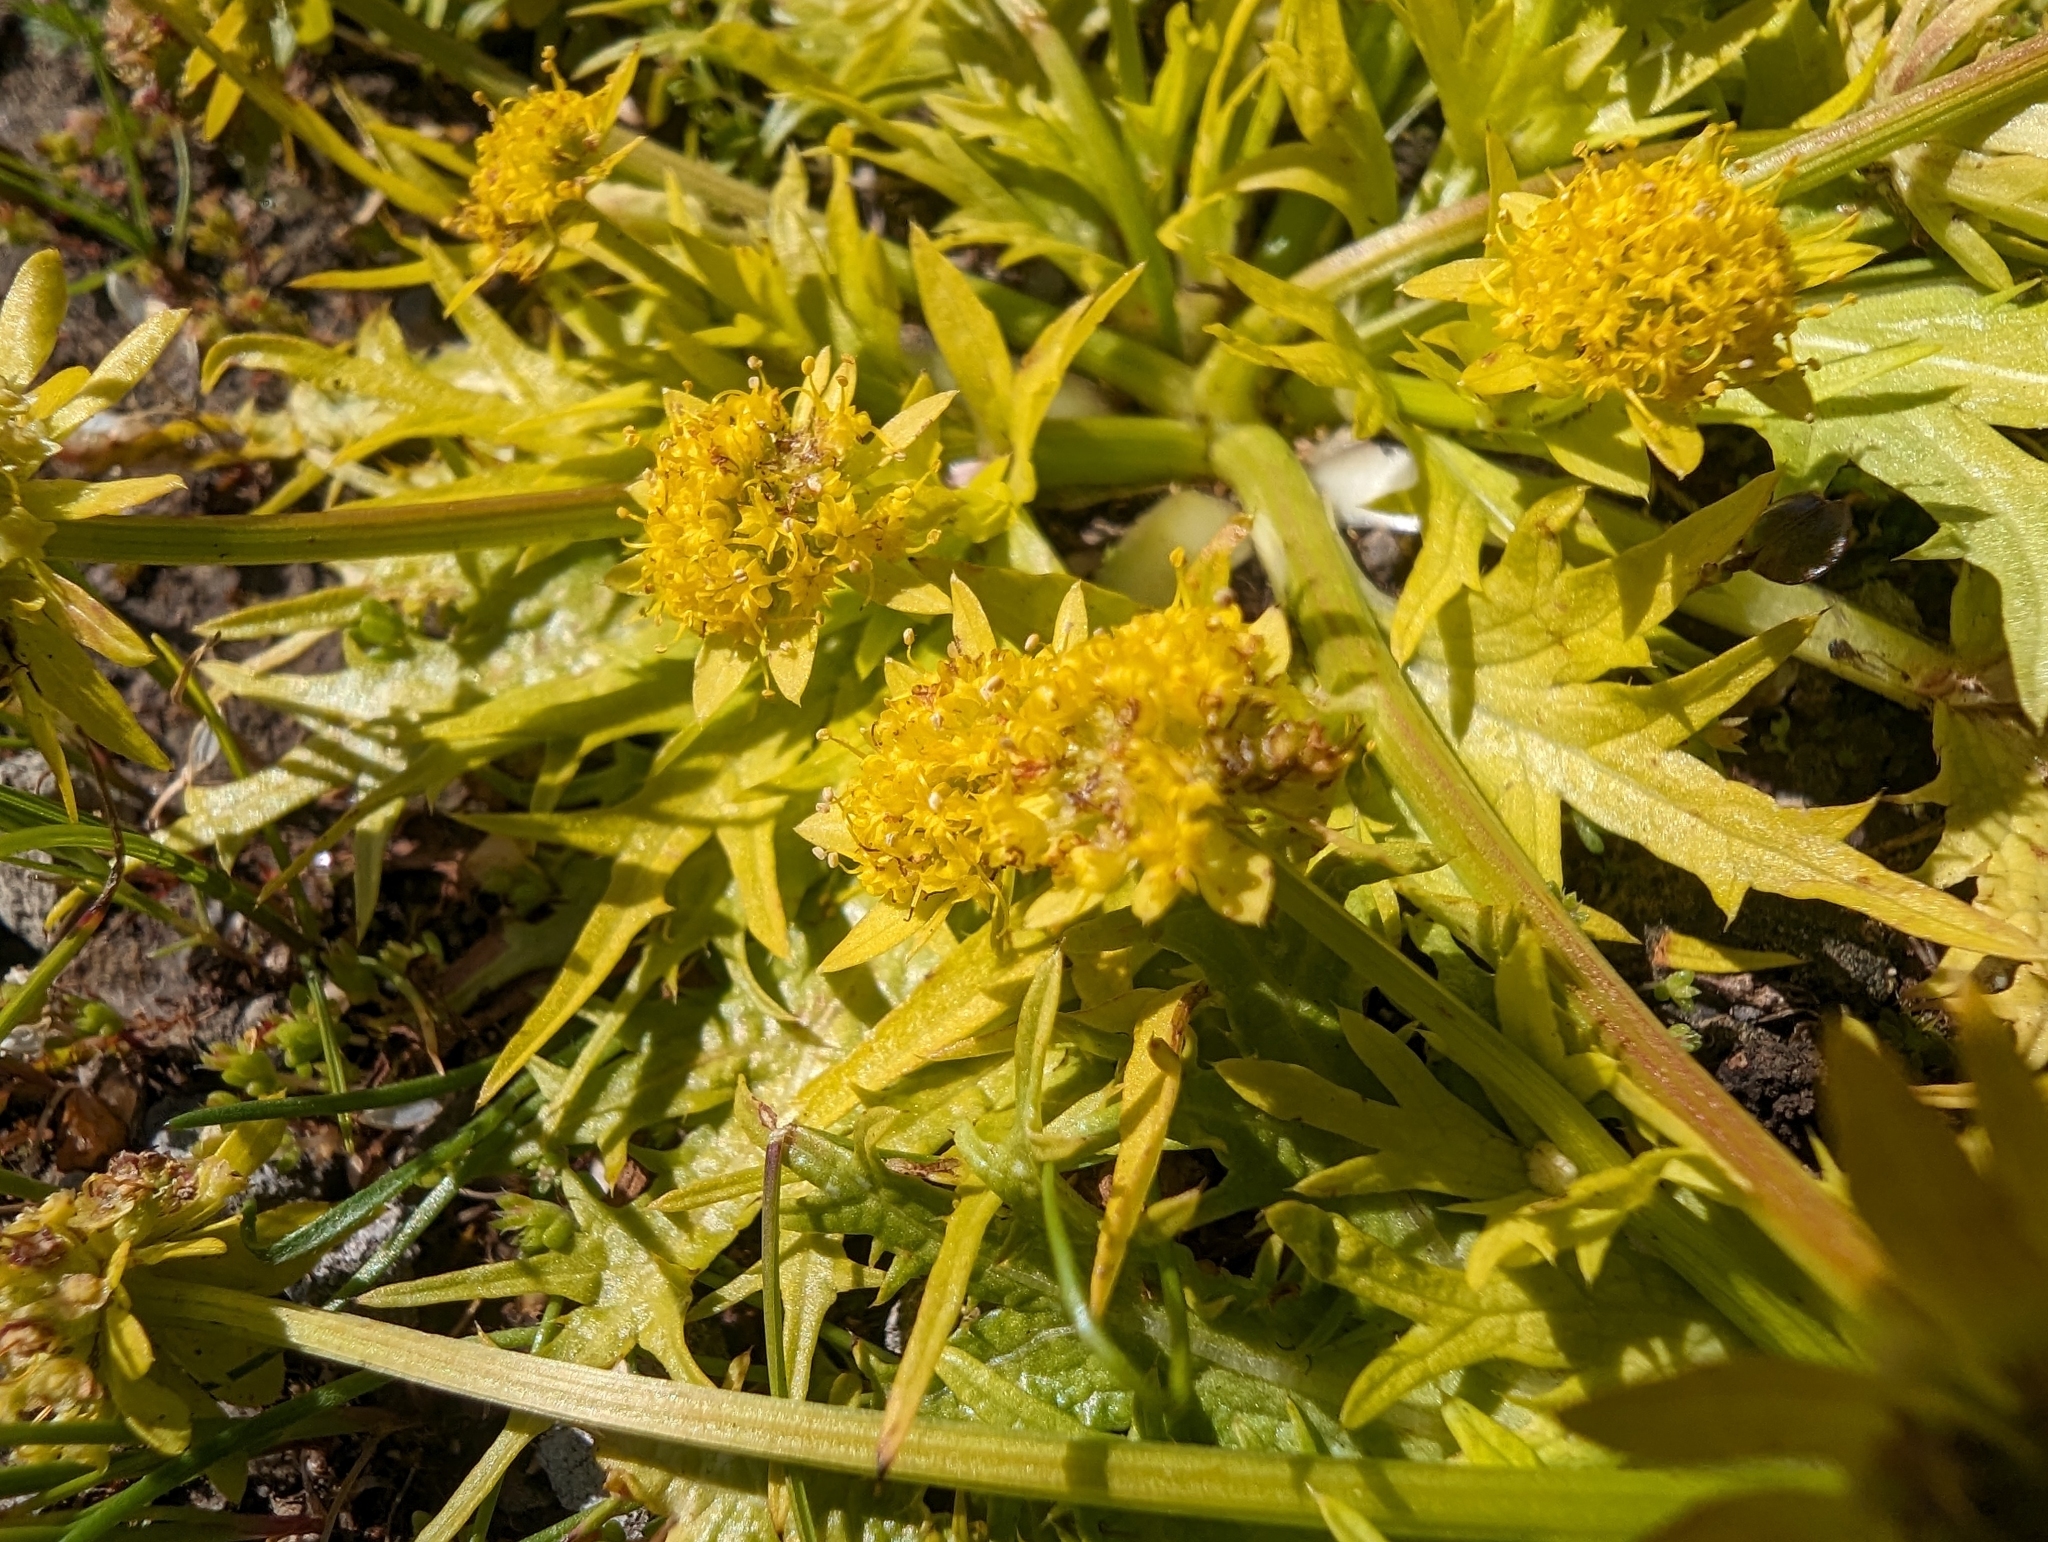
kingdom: Plantae
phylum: Tracheophyta
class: Magnoliopsida
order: Apiales
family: Apiaceae
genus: Sanicula
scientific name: Sanicula arctopoides
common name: Footsteps-of-spring
